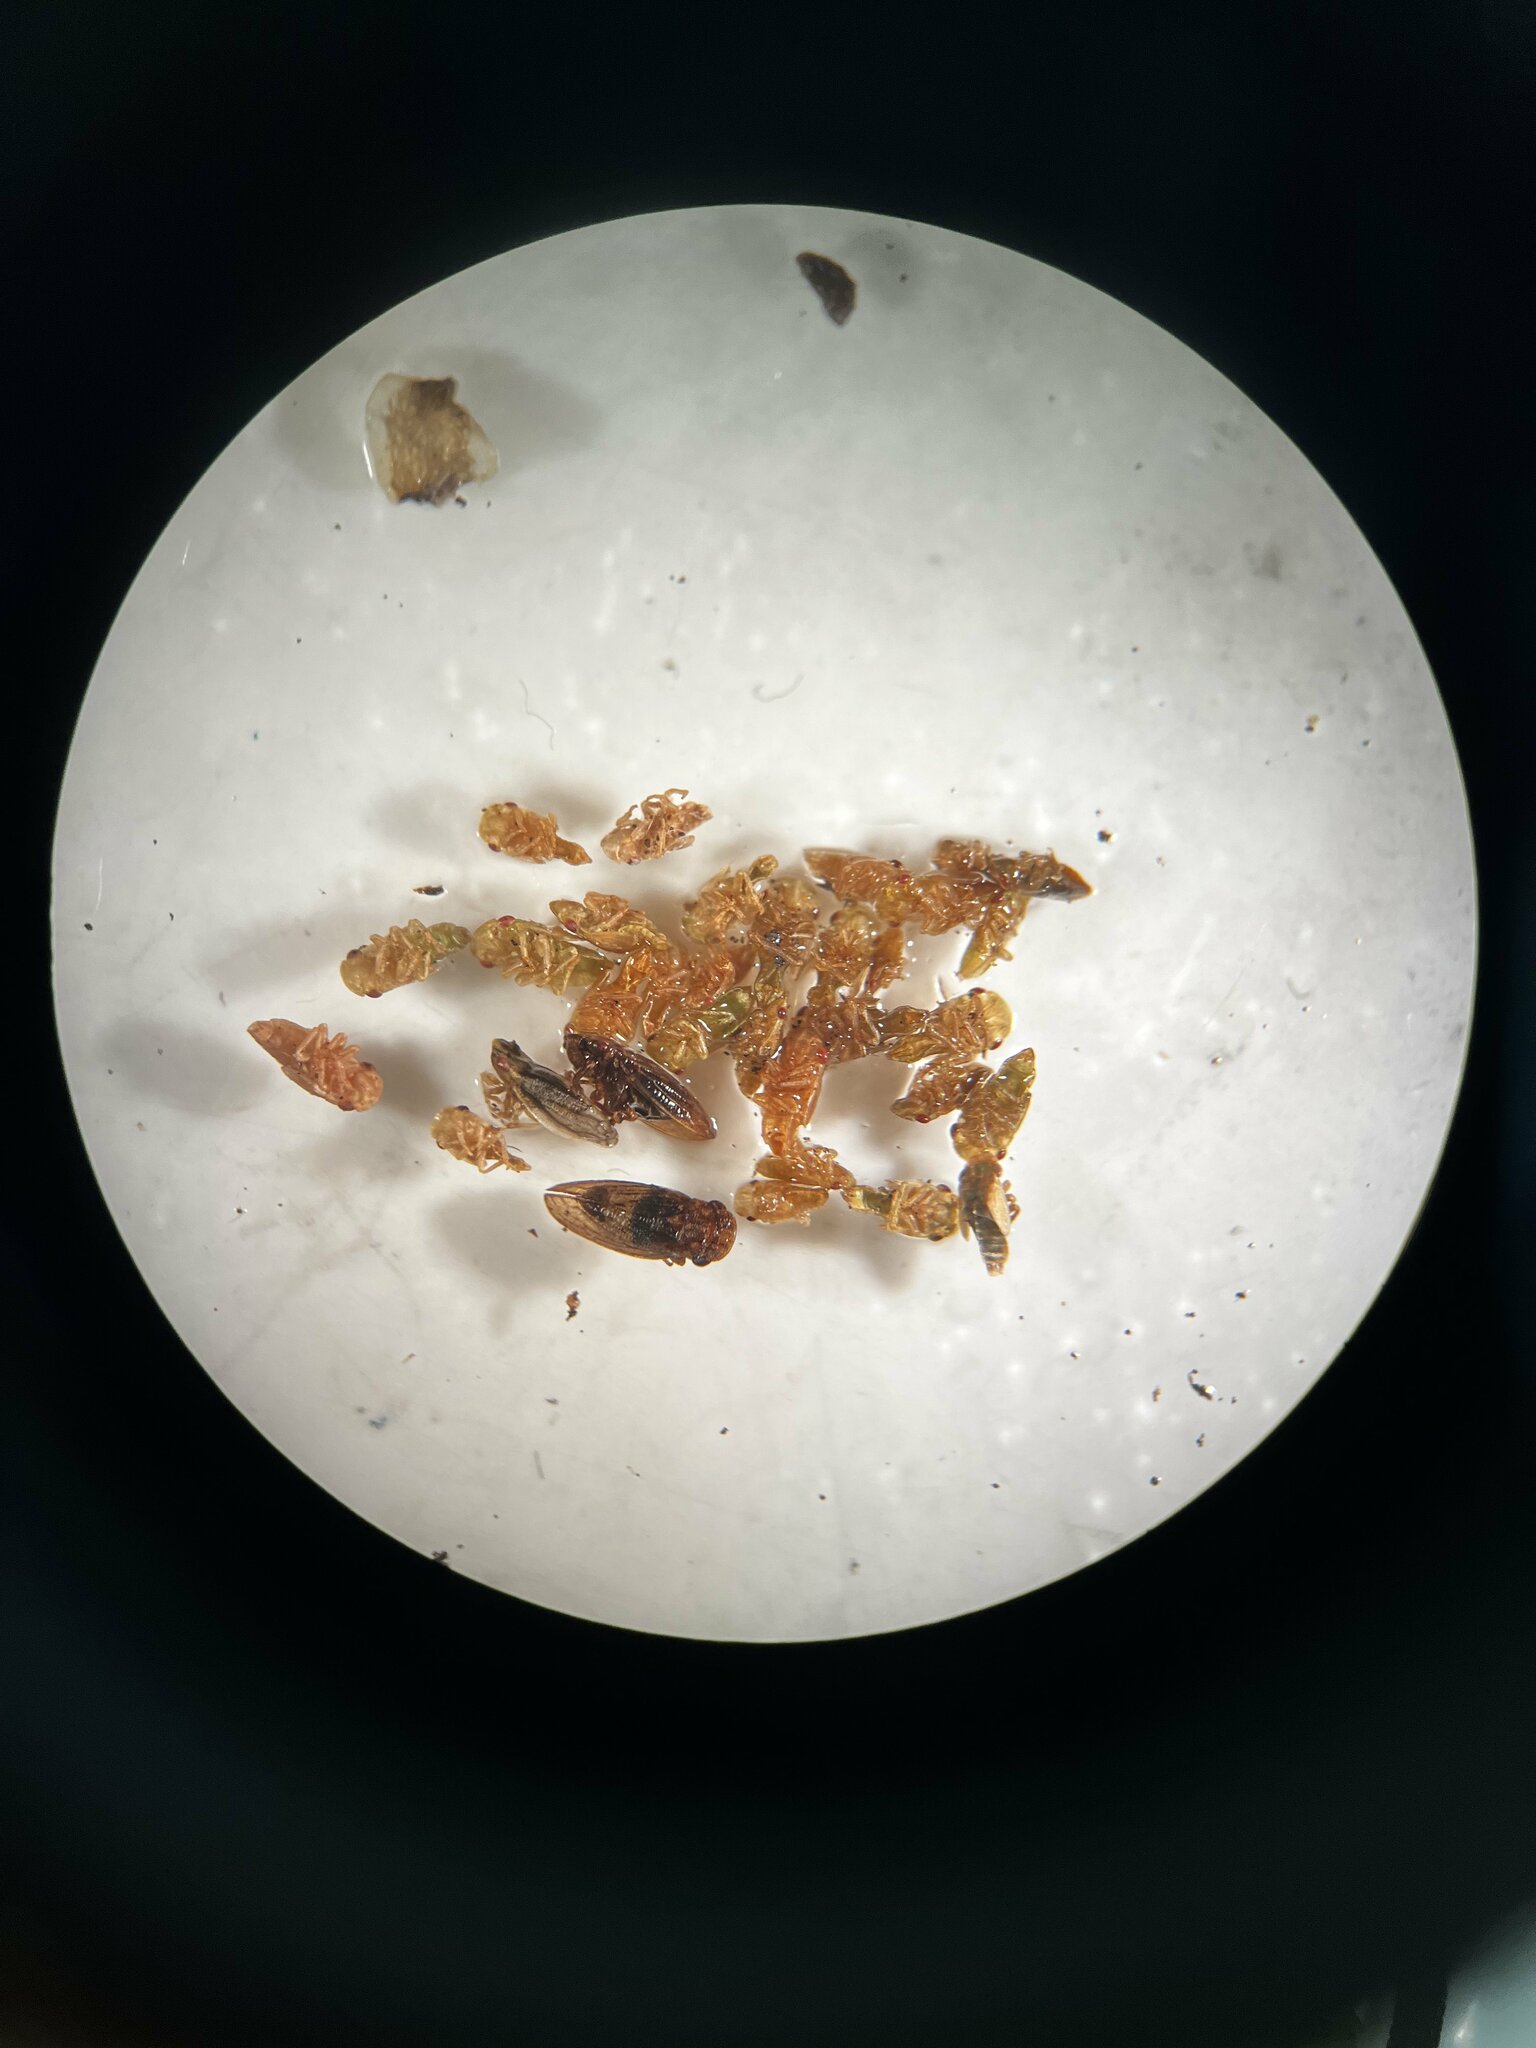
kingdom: Animalia
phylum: Arthropoda
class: Insecta
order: Hemiptera
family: Cicadellidae
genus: Utecha
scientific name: Utecha trivia
